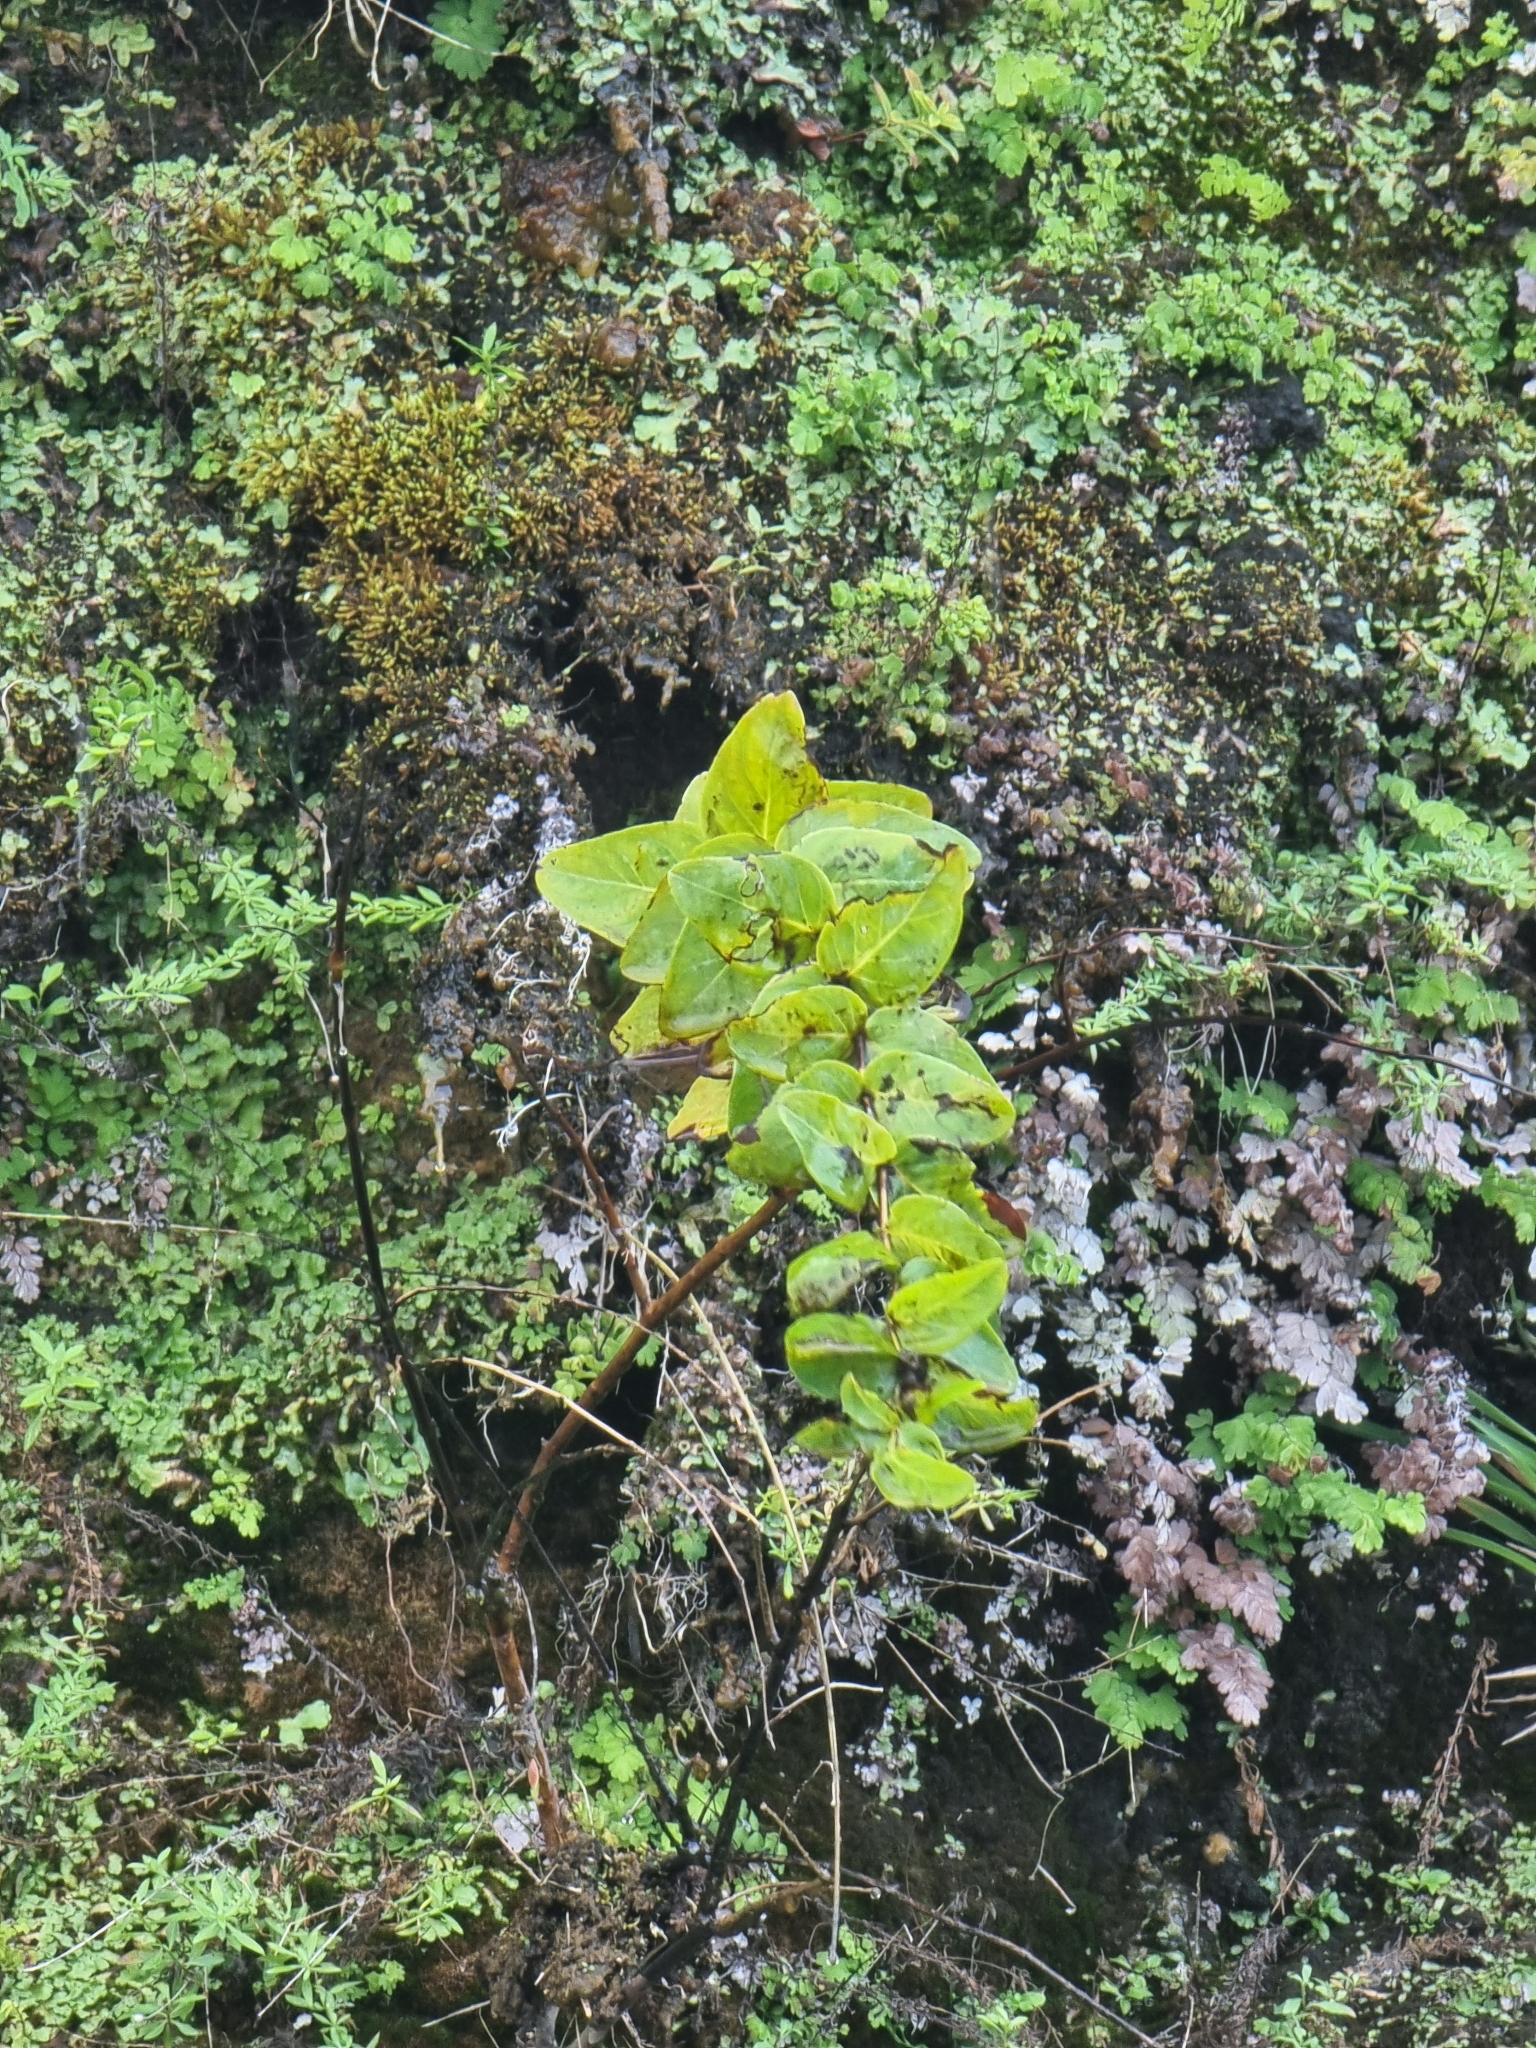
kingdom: Plantae
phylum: Tracheophyta
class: Magnoliopsida
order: Malpighiales
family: Hypericaceae
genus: Hypericum
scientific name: Hypericum grandifolium
